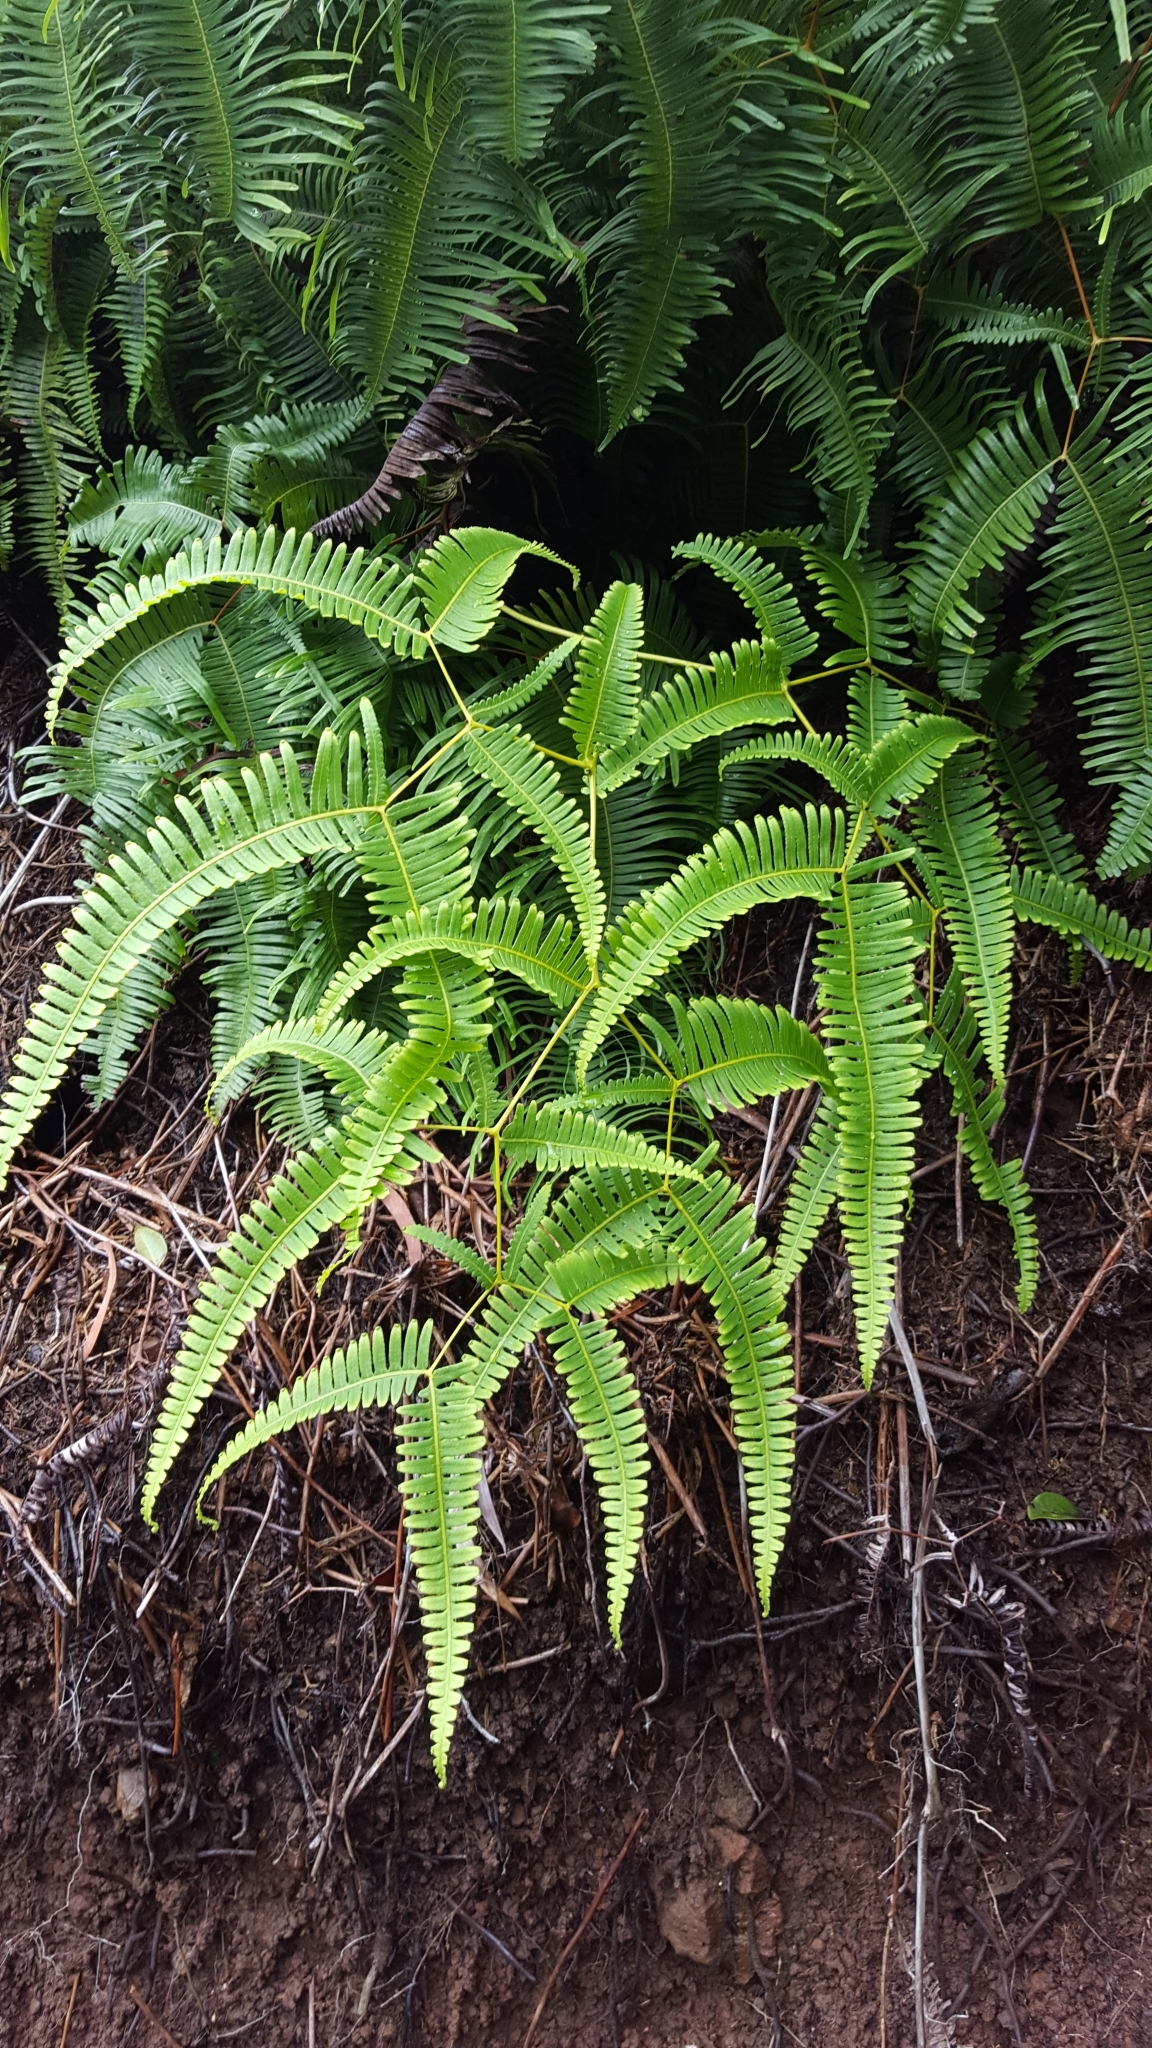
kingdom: Plantae
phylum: Tracheophyta
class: Polypodiopsida
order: Gleicheniales
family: Gleicheniaceae
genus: Dicranopteris
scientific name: Dicranopteris linearis
